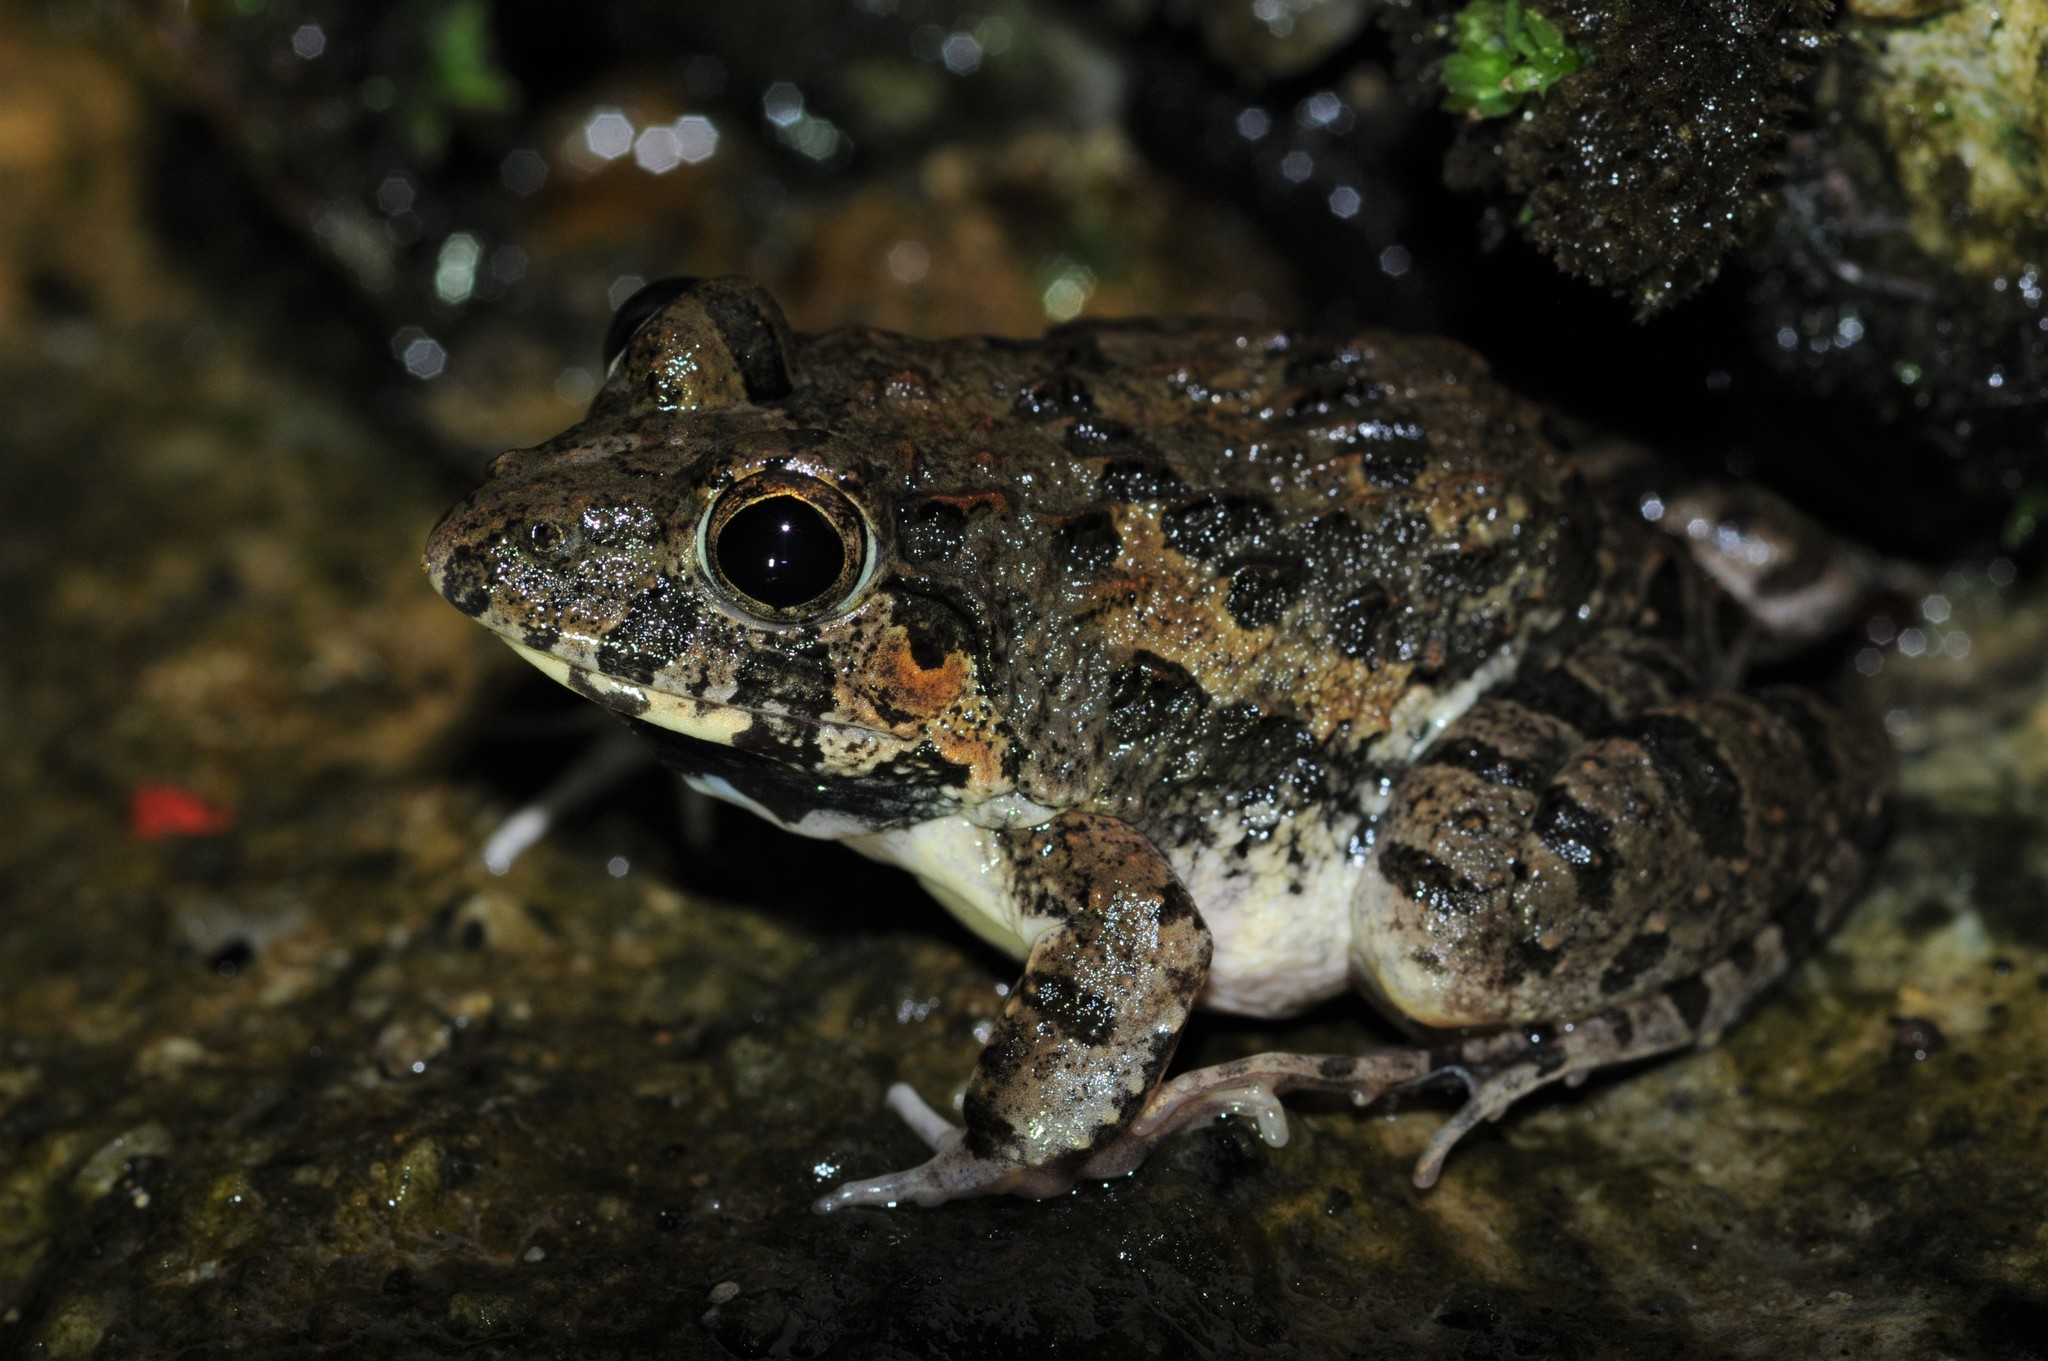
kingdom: Animalia
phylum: Chordata
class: Amphibia
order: Anura
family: Dicroglossidae
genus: Fejervarya
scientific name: Fejervarya limnocharis
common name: Asian grass frog/common pond frog/field frog/grass frog/indian rice frog
